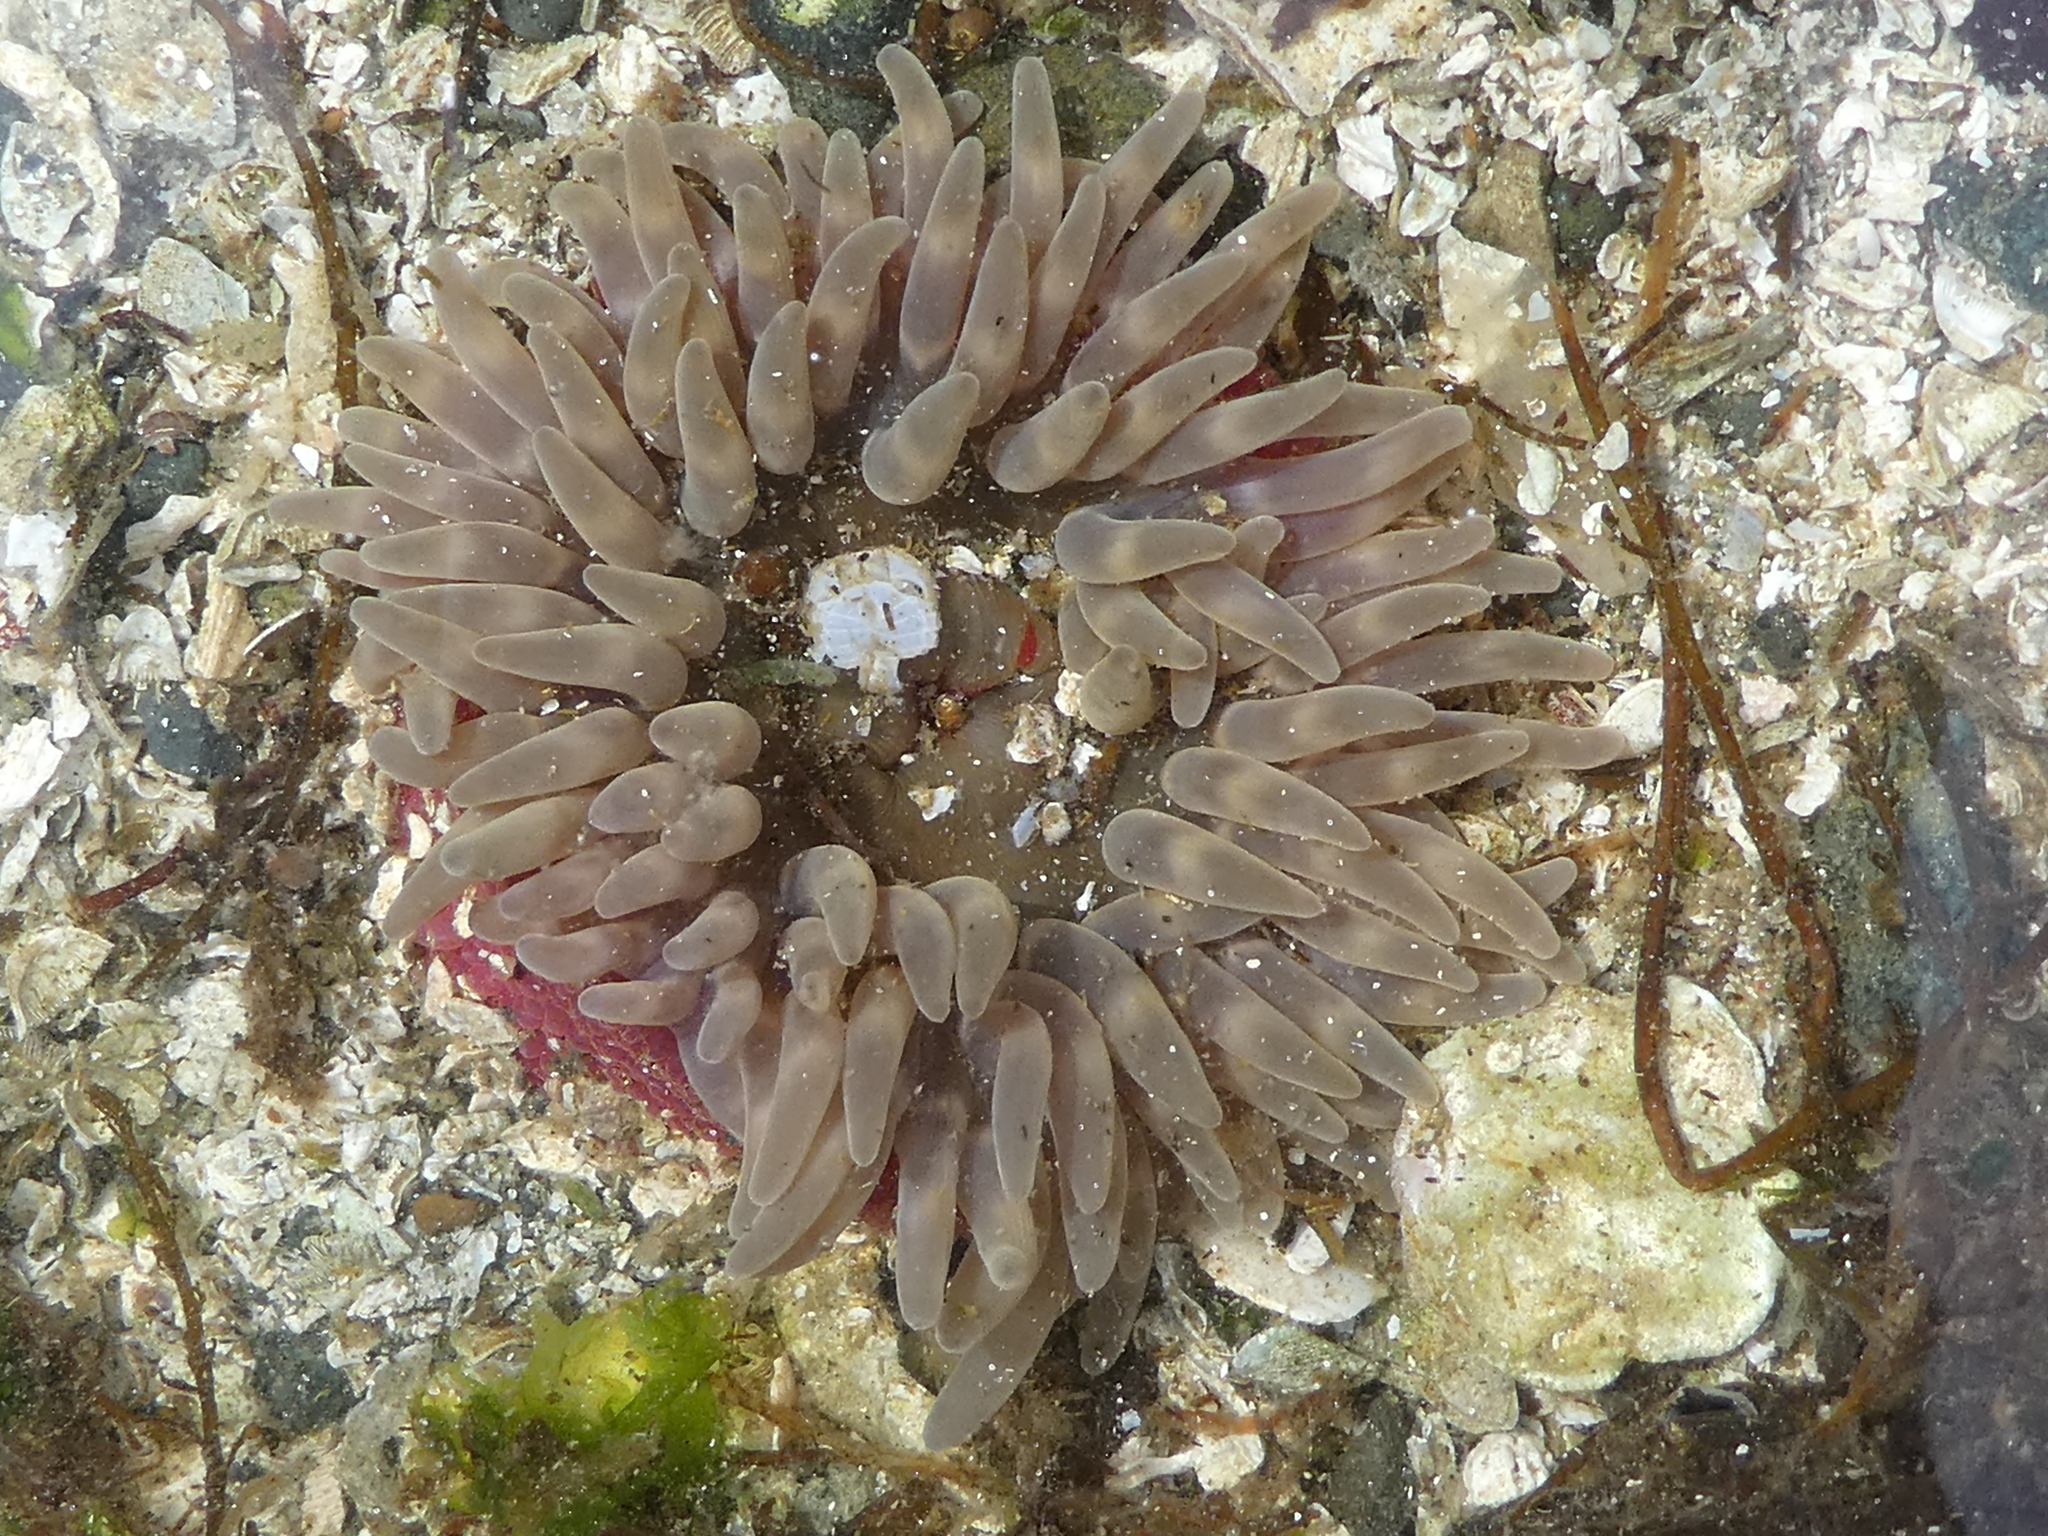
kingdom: Animalia
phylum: Cnidaria
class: Anthozoa
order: Actiniaria
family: Actiniidae
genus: Urticina
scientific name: Urticina clandestina
